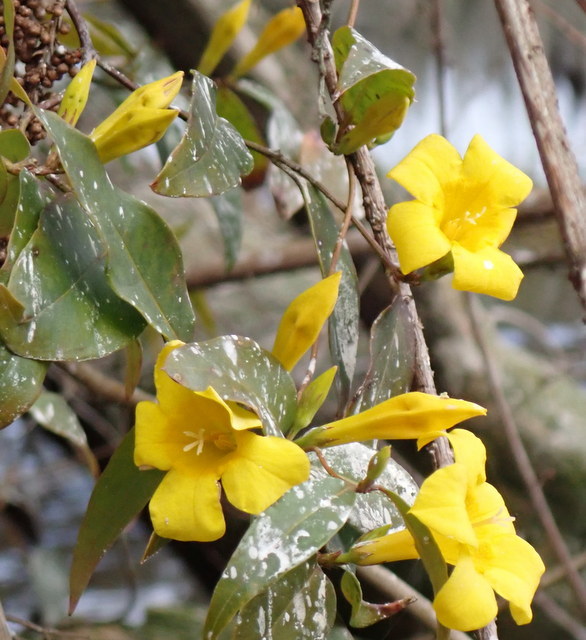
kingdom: Plantae
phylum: Tracheophyta
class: Magnoliopsida
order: Gentianales
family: Gelsemiaceae
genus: Gelsemium
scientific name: Gelsemium rankinii
